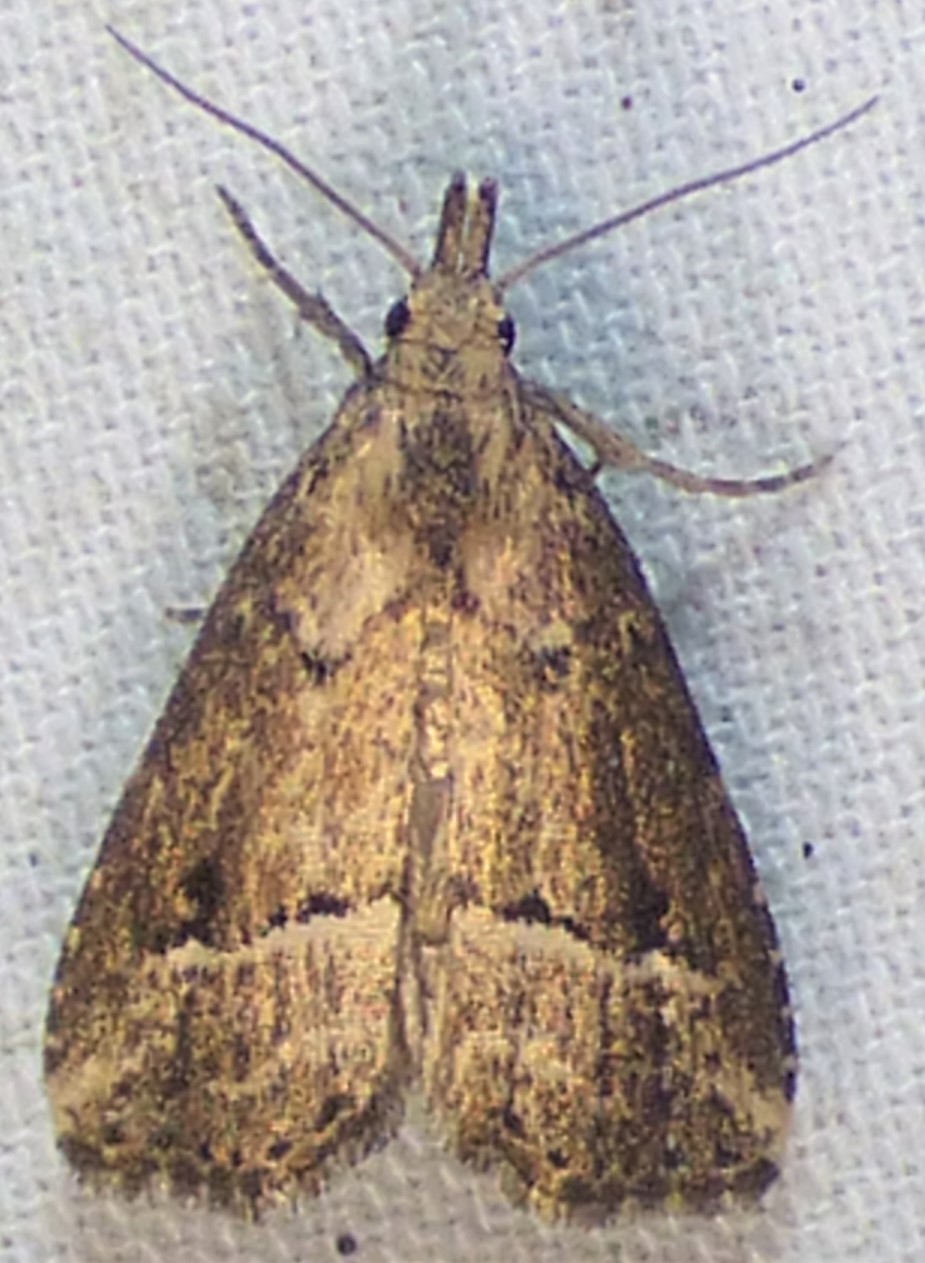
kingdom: Animalia
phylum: Arthropoda
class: Insecta
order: Lepidoptera
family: Erebidae
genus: Schrankia
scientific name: Schrankia
